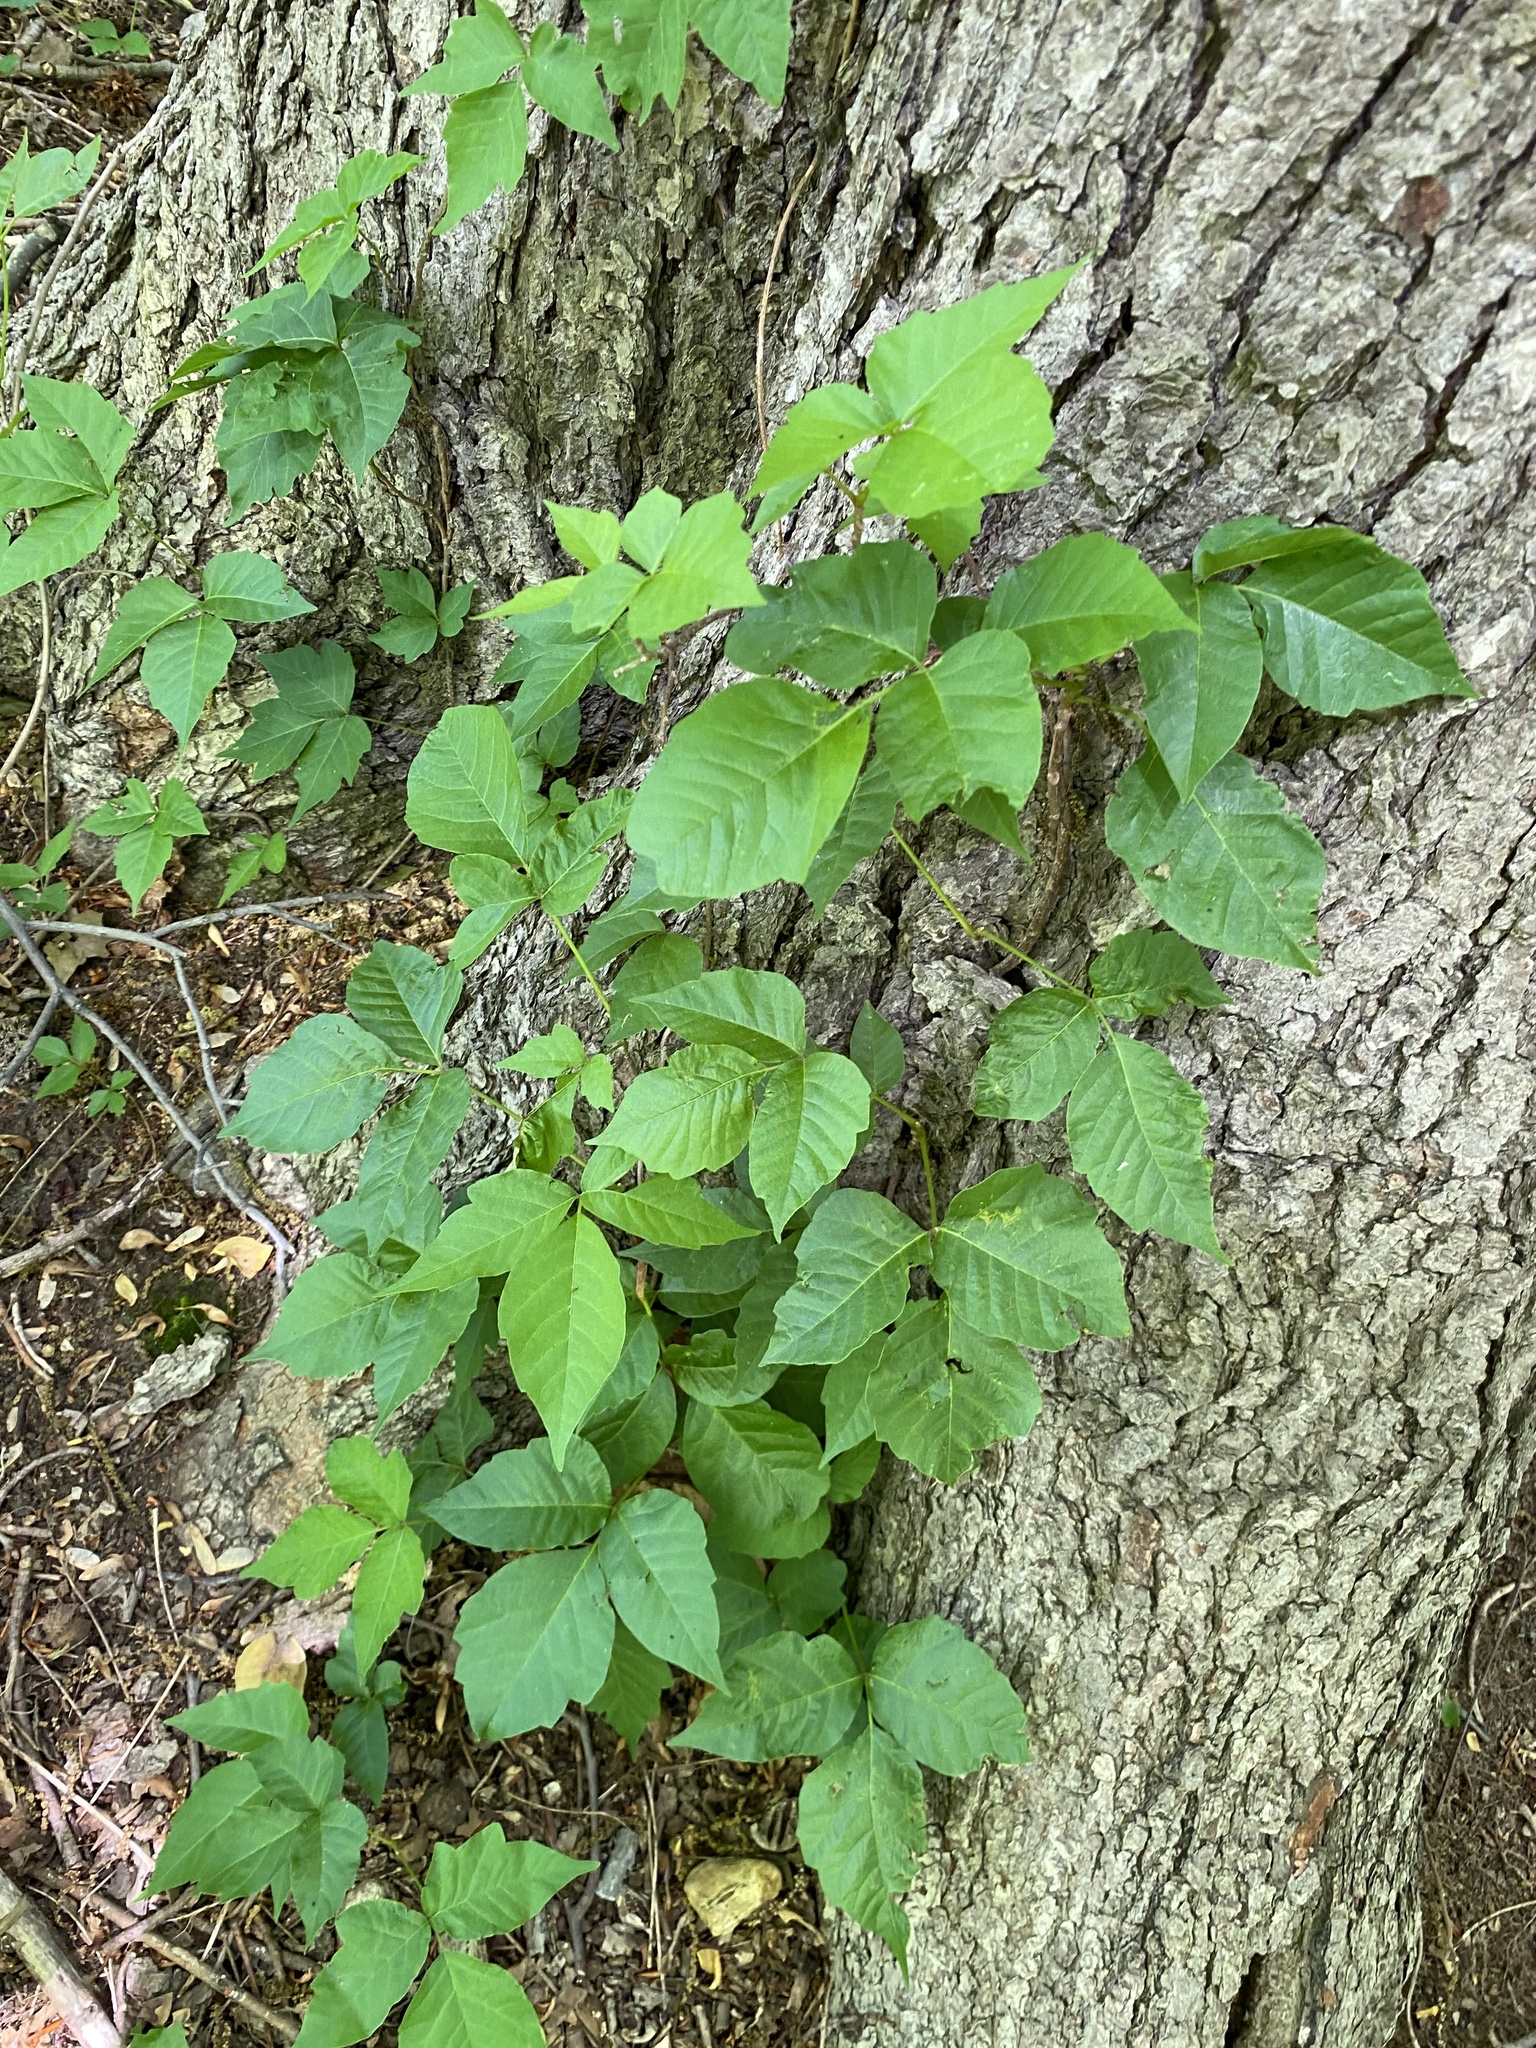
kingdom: Plantae
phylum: Tracheophyta
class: Magnoliopsida
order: Sapindales
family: Anacardiaceae
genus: Toxicodendron
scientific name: Toxicodendron radicans
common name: Poison ivy
